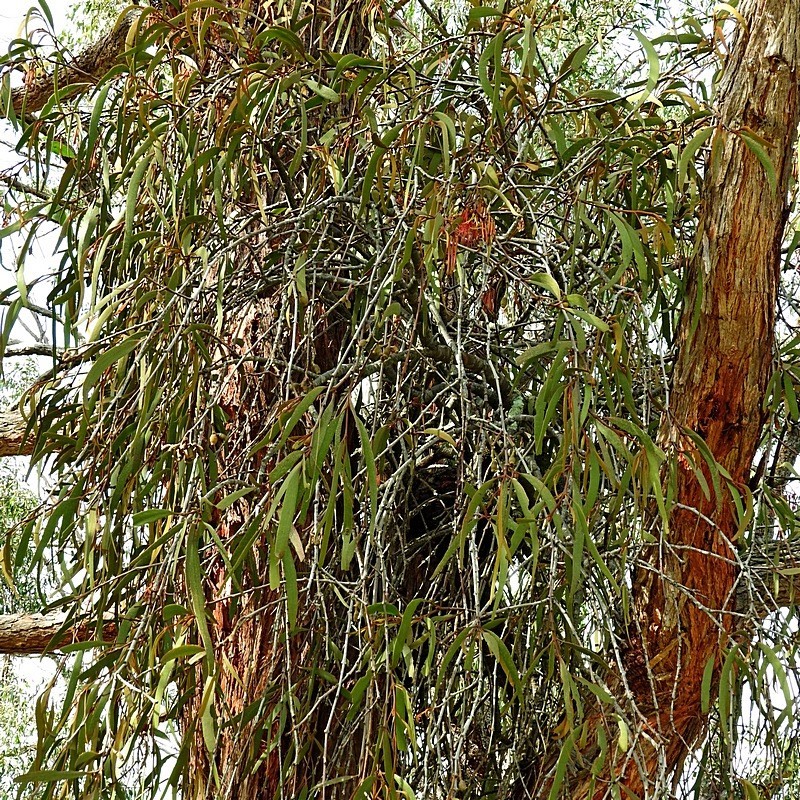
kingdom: Plantae
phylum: Tracheophyta
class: Magnoliopsida
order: Santalales
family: Loranthaceae
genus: Amyema
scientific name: Amyema pendula
